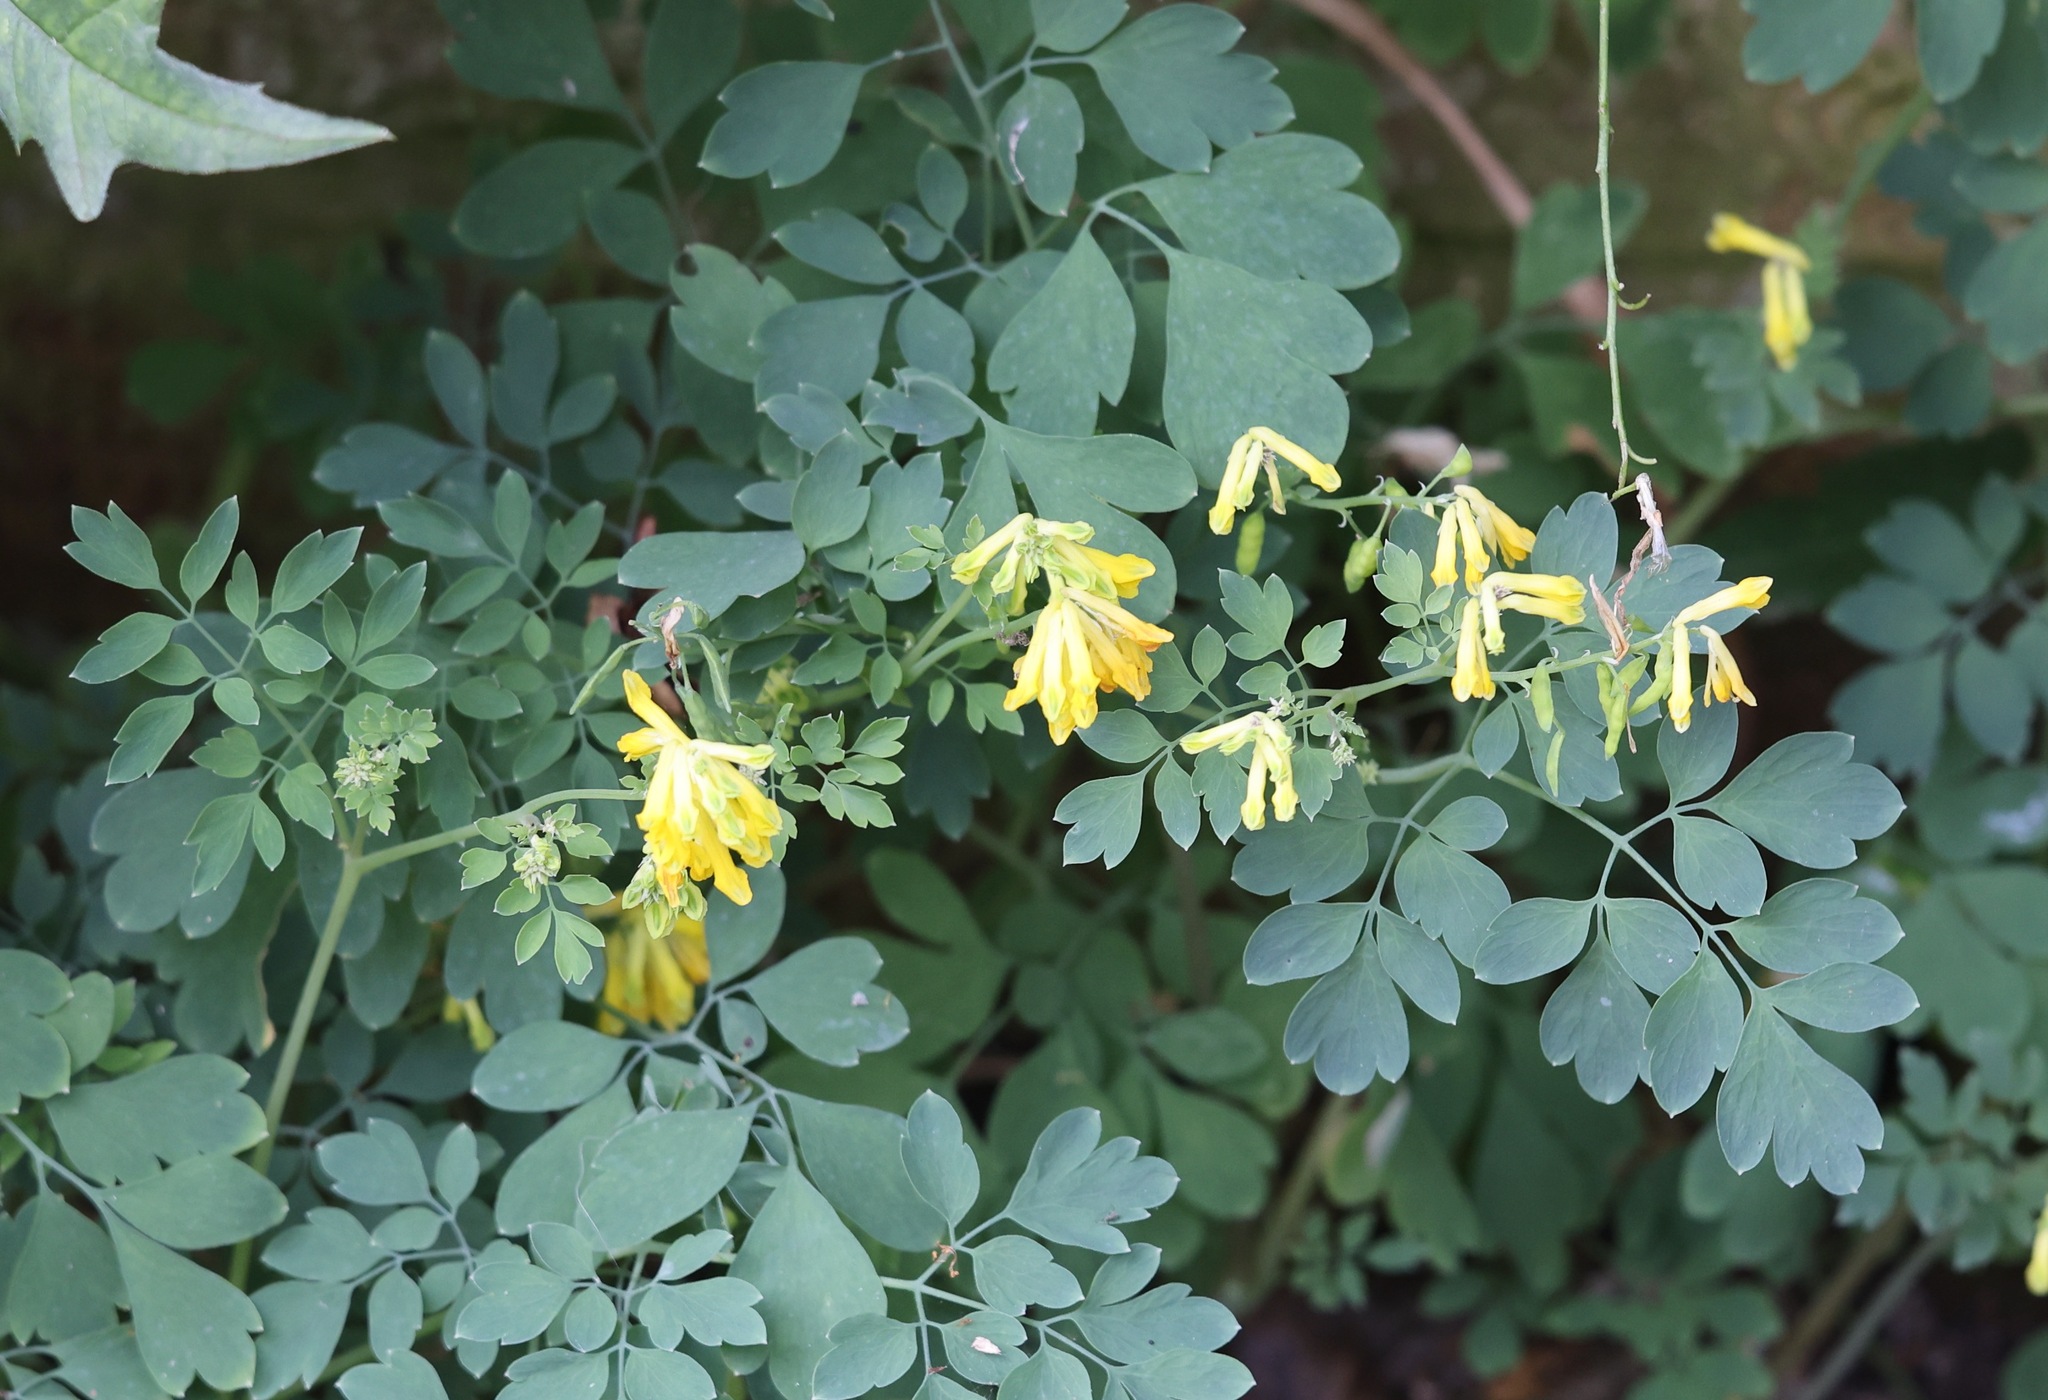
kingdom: Plantae
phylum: Tracheophyta
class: Magnoliopsida
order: Ranunculales
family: Papaveraceae
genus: Pseudofumaria
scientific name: Pseudofumaria lutea
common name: Yellow corydalis
